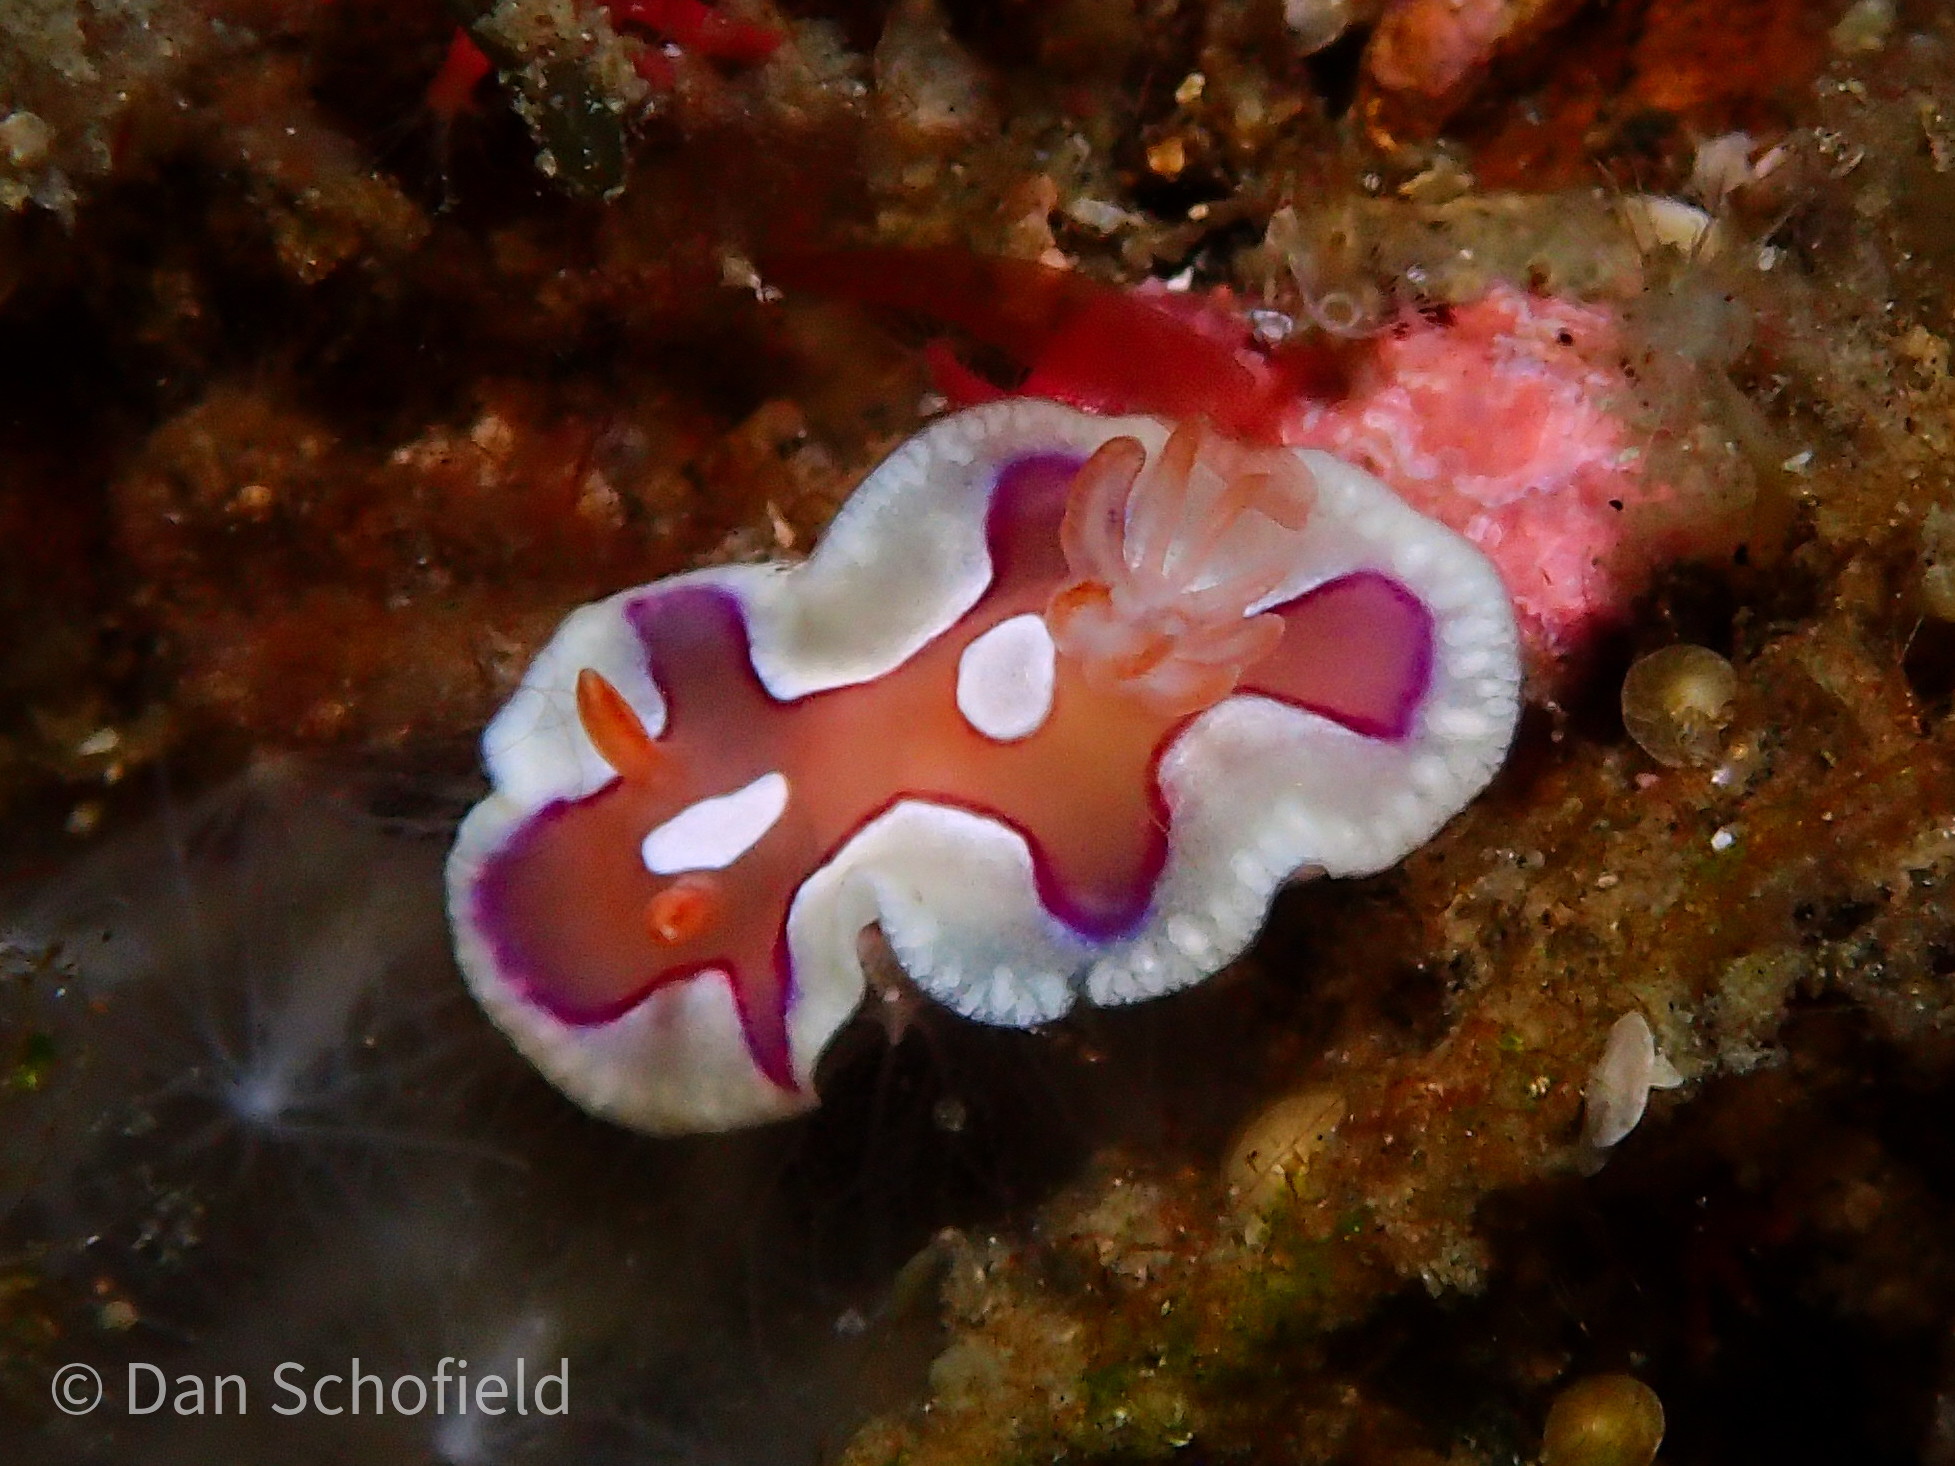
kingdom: Animalia
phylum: Mollusca
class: Gastropoda
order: Nudibranchia
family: Chromodorididae
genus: Mexichromis
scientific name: Mexichromis pusilla
